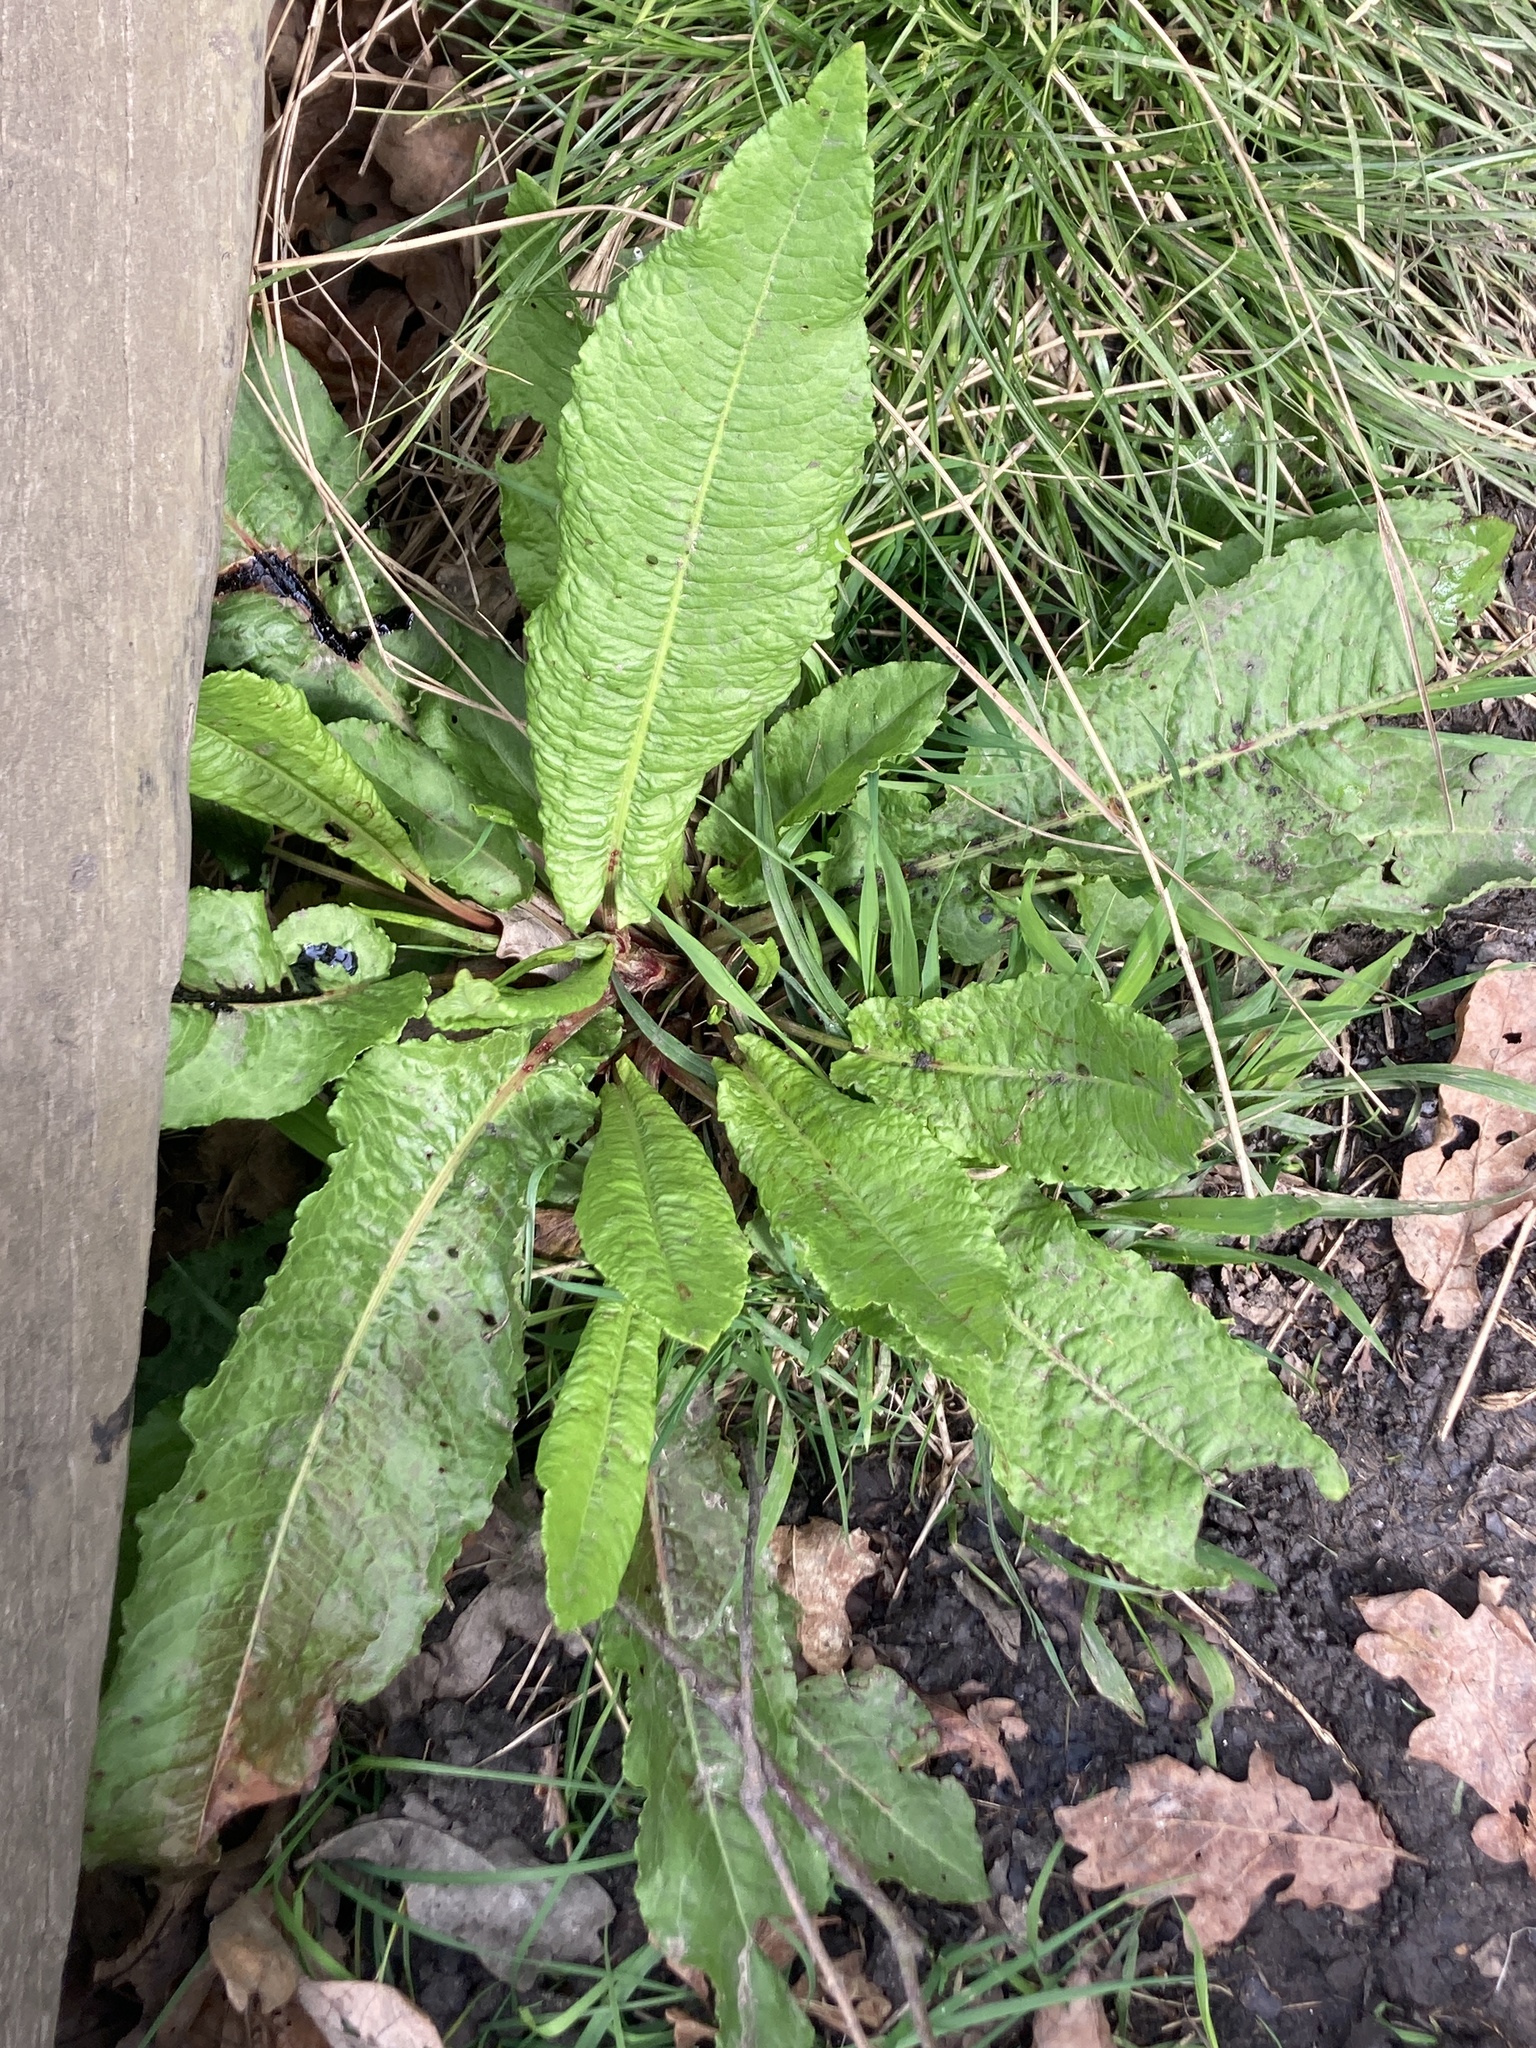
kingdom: Plantae
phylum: Tracheophyta
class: Magnoliopsida
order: Caryophyllales
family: Polygonaceae
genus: Rumex
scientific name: Rumex obtusifolius
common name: Bitter dock
